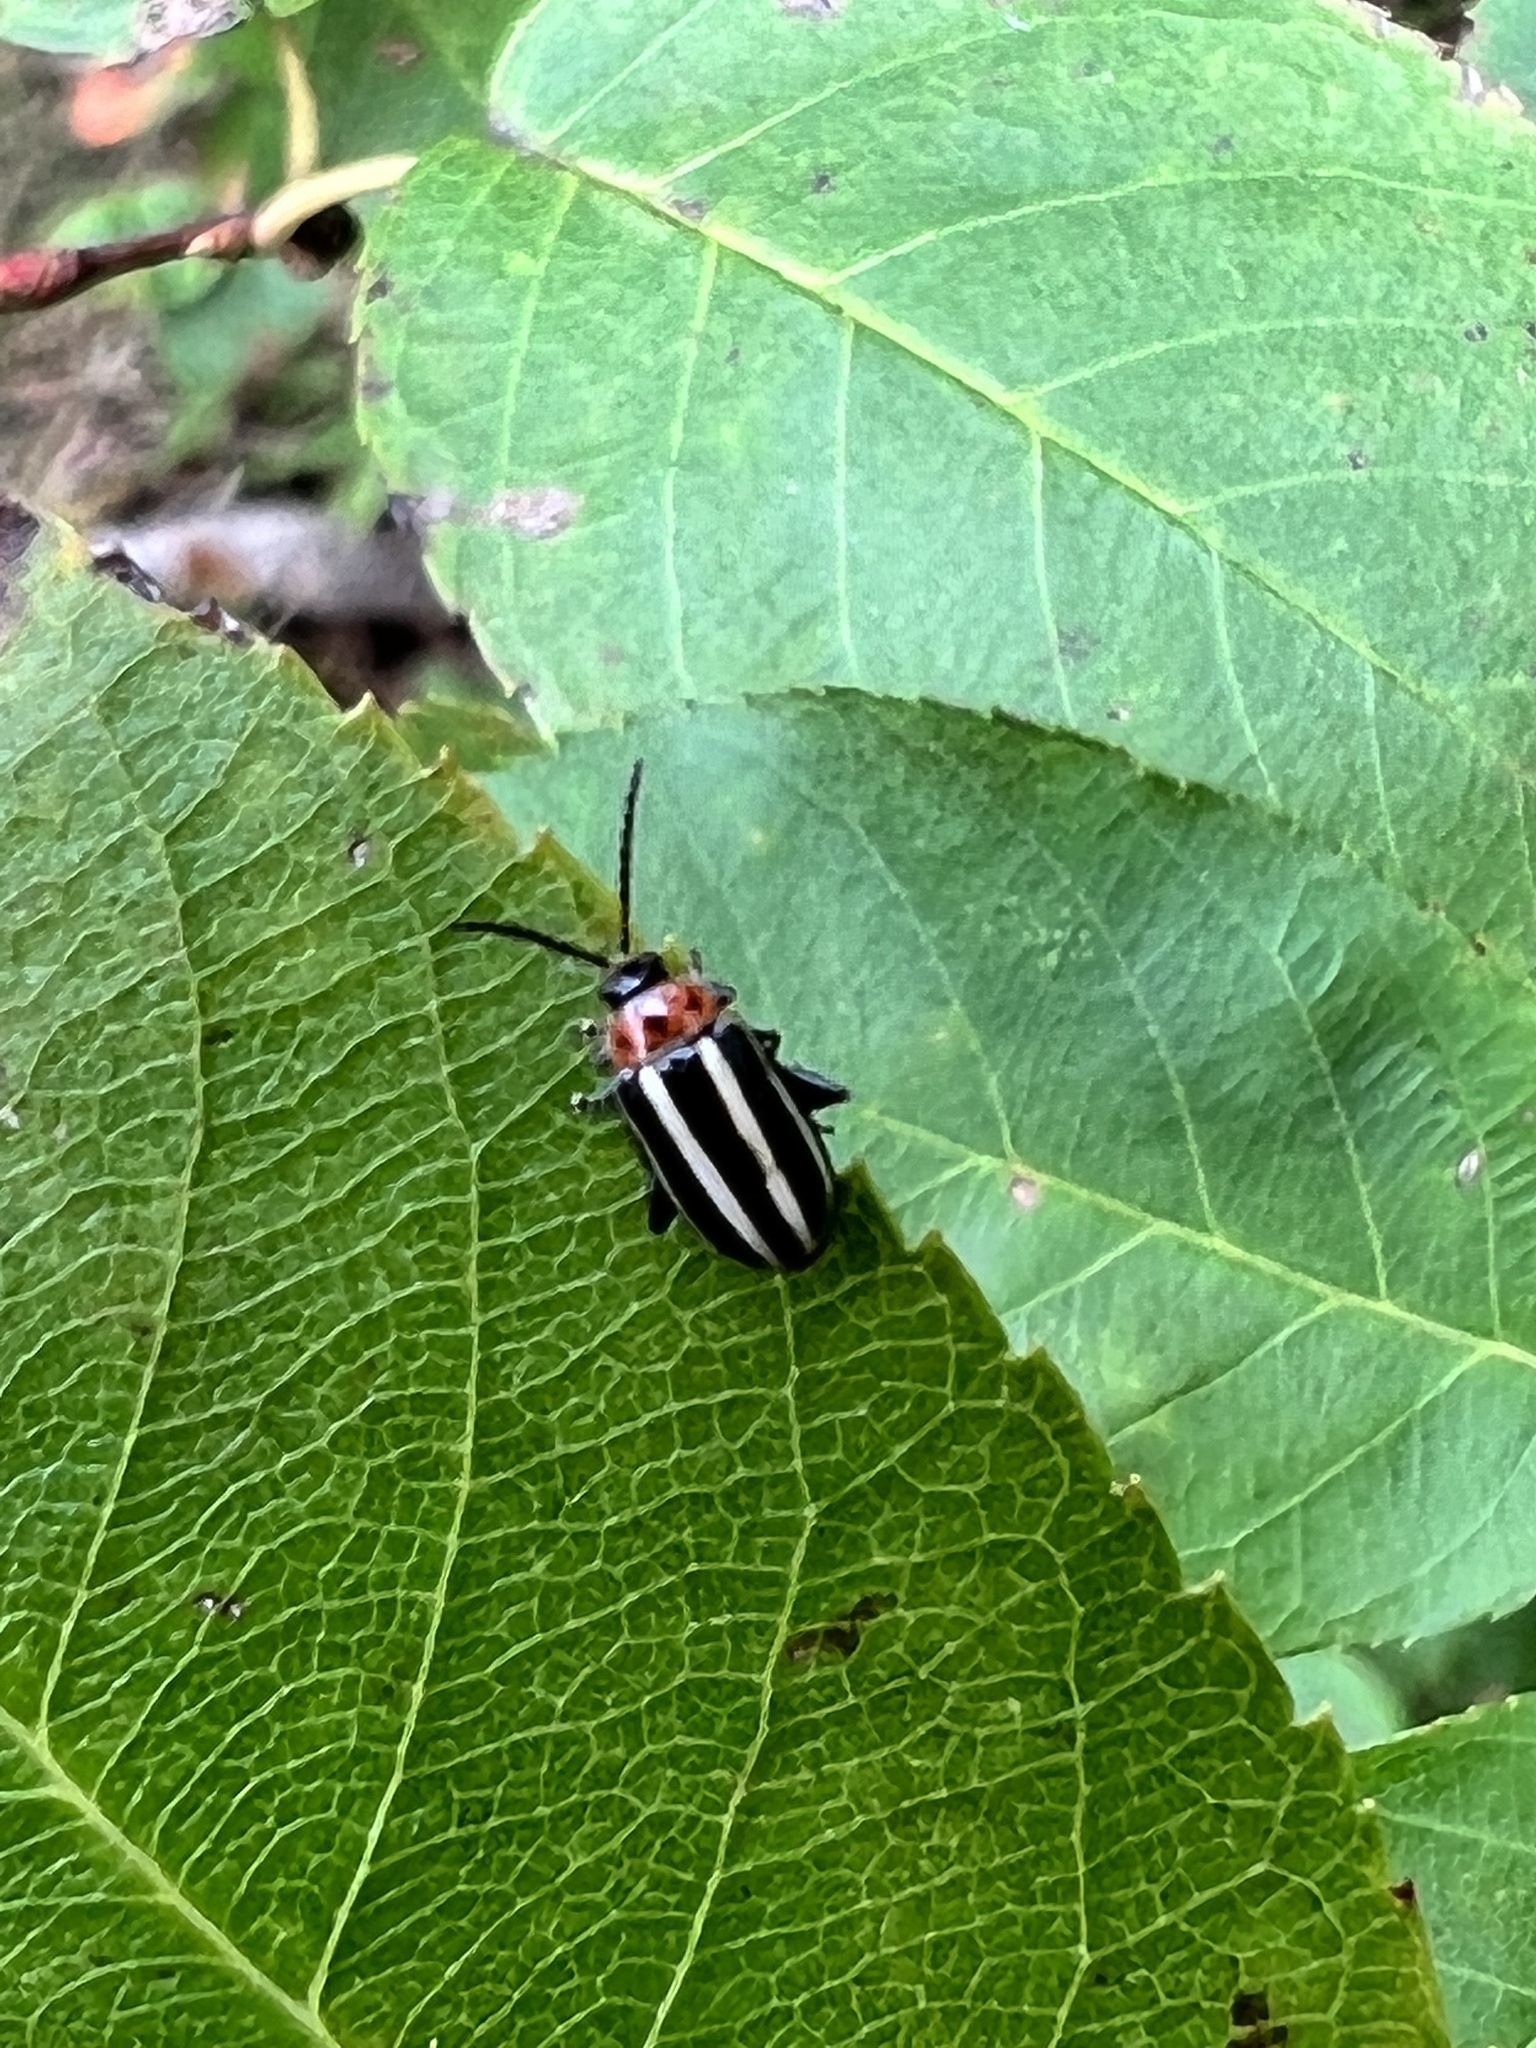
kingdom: Animalia
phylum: Arthropoda
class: Insecta
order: Coleoptera
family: Chrysomelidae
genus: Disonycha
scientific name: Disonycha glabrata
